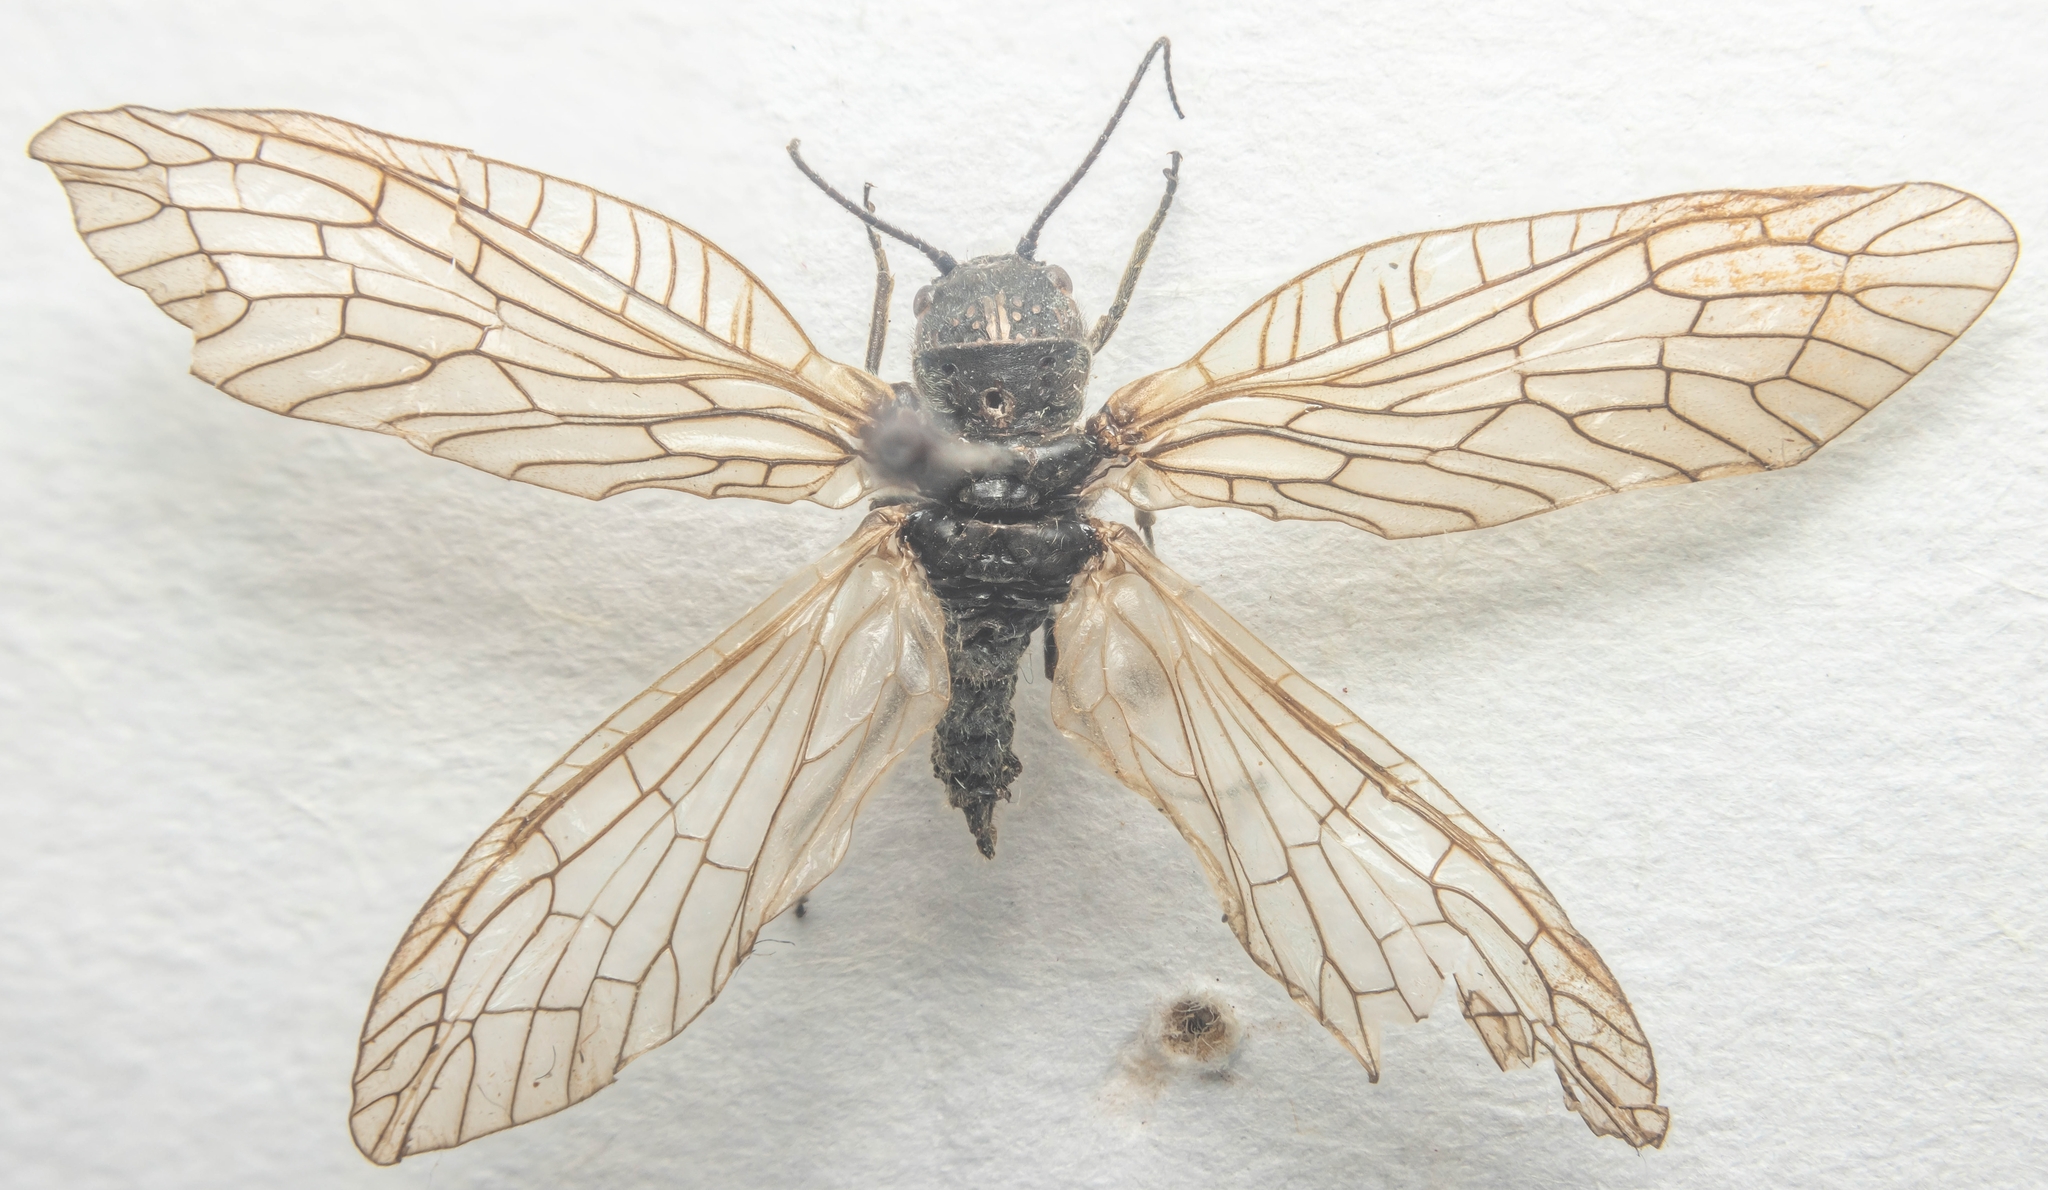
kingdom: Animalia
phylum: Arthropoda
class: Insecta
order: Megaloptera
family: Sialidae
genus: Sialis
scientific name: Sialis
